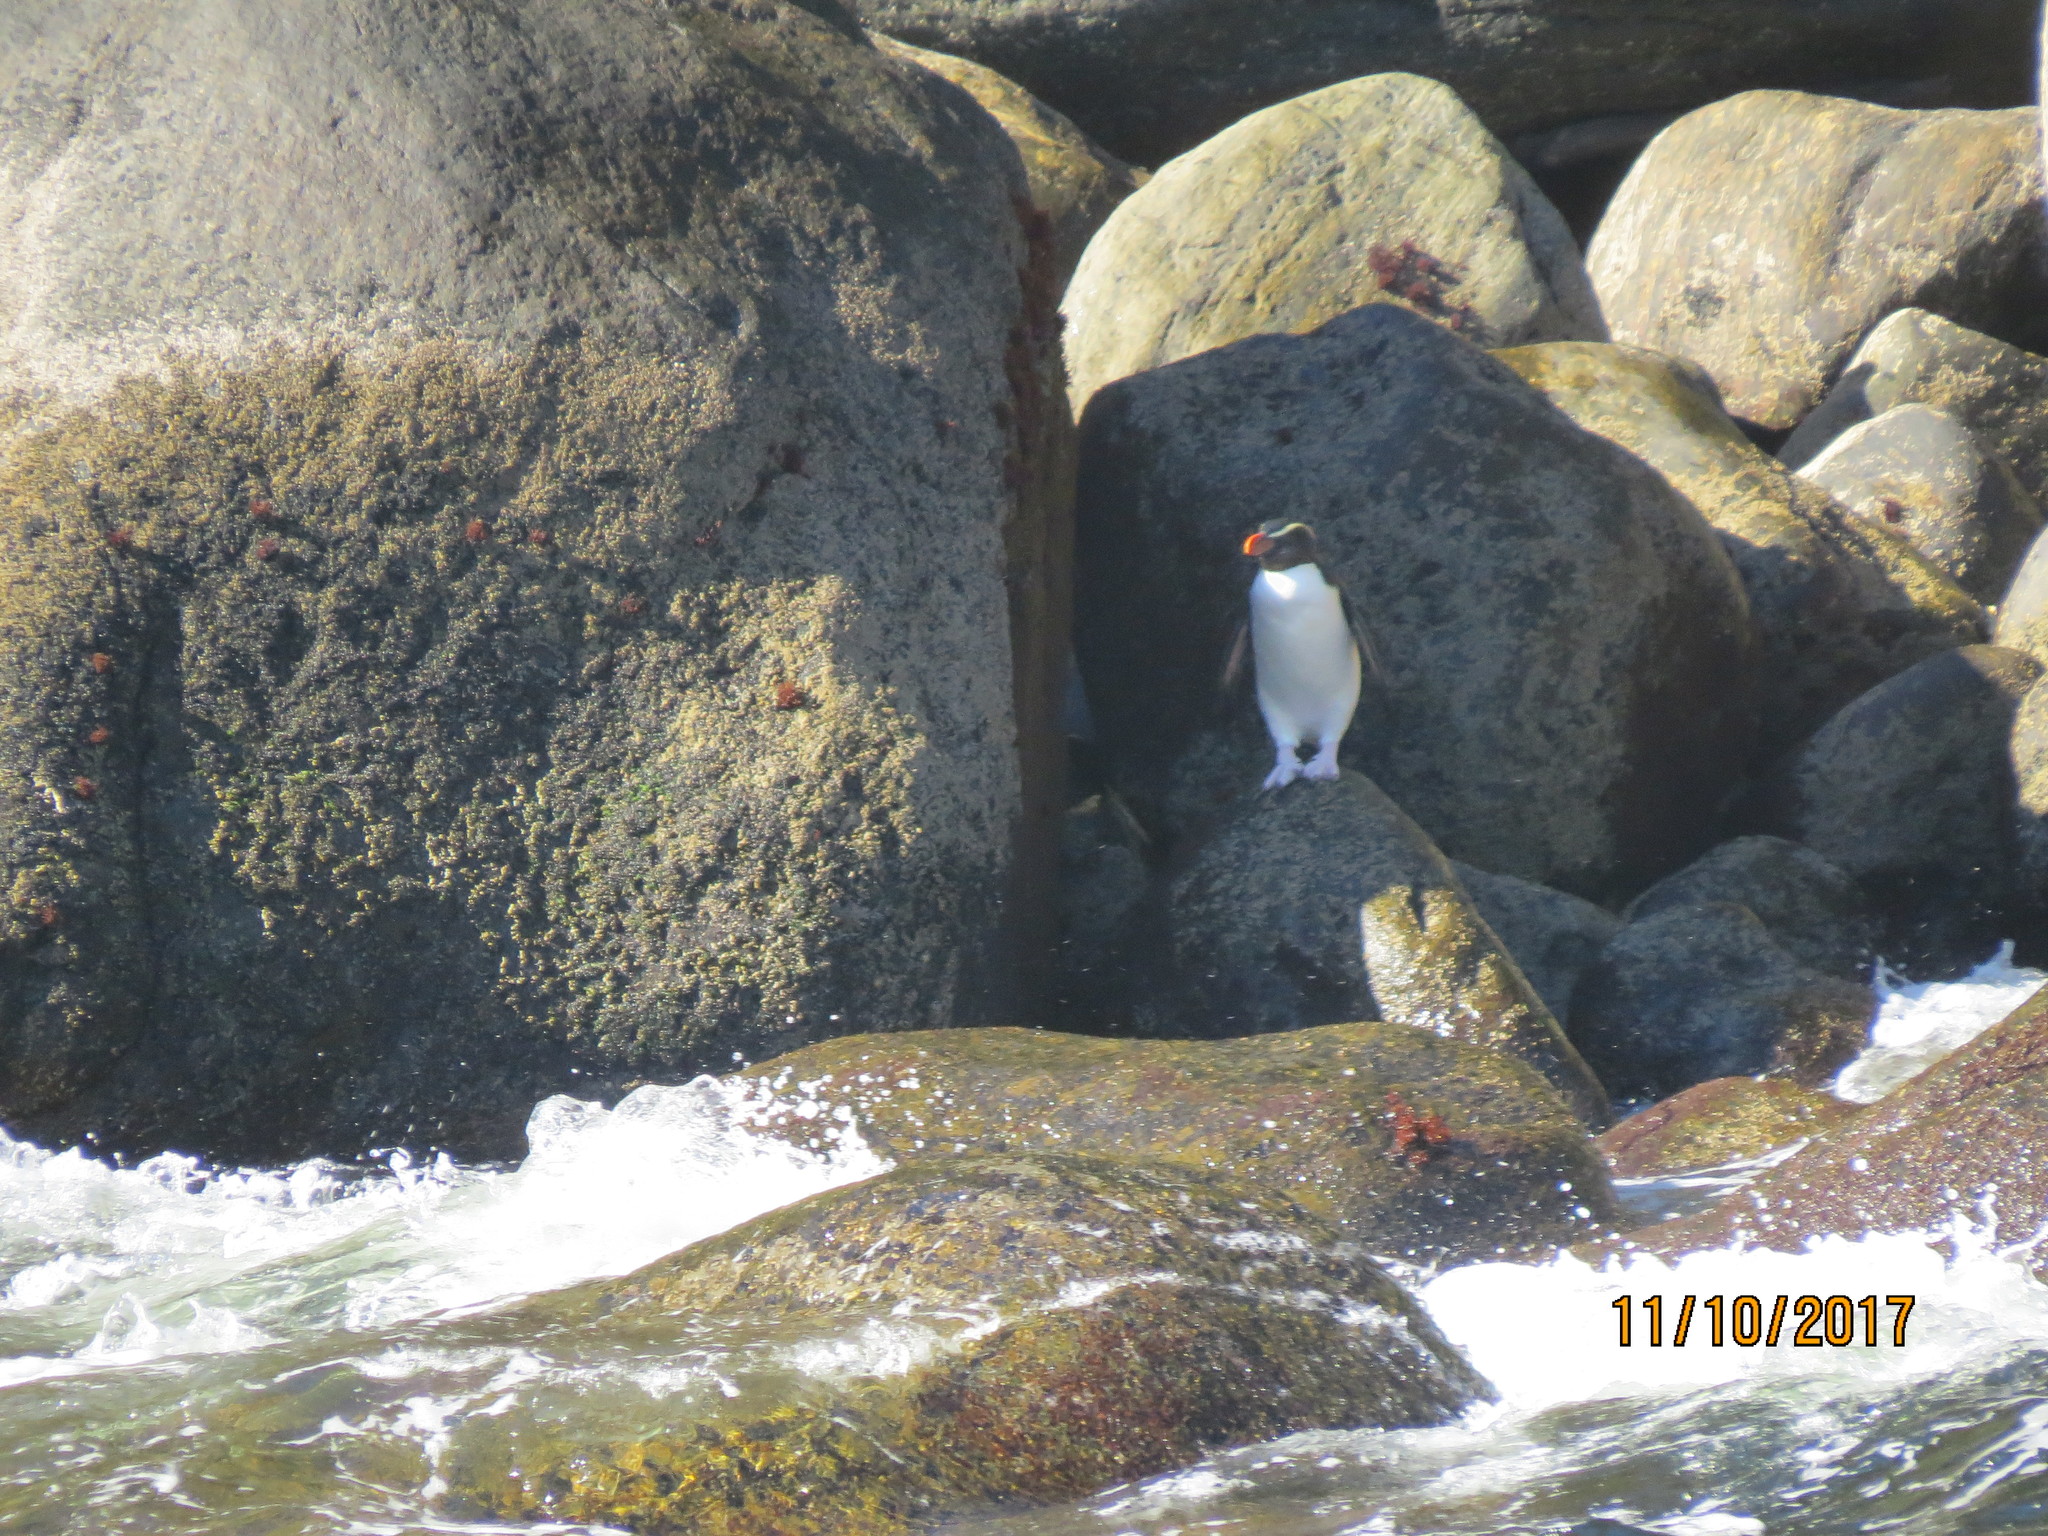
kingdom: Animalia
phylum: Chordata
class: Aves
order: Sphenisciformes
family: Spheniscidae
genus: Eudyptes
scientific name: Eudyptes pachyrhynchus
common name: Fiordland penguin
